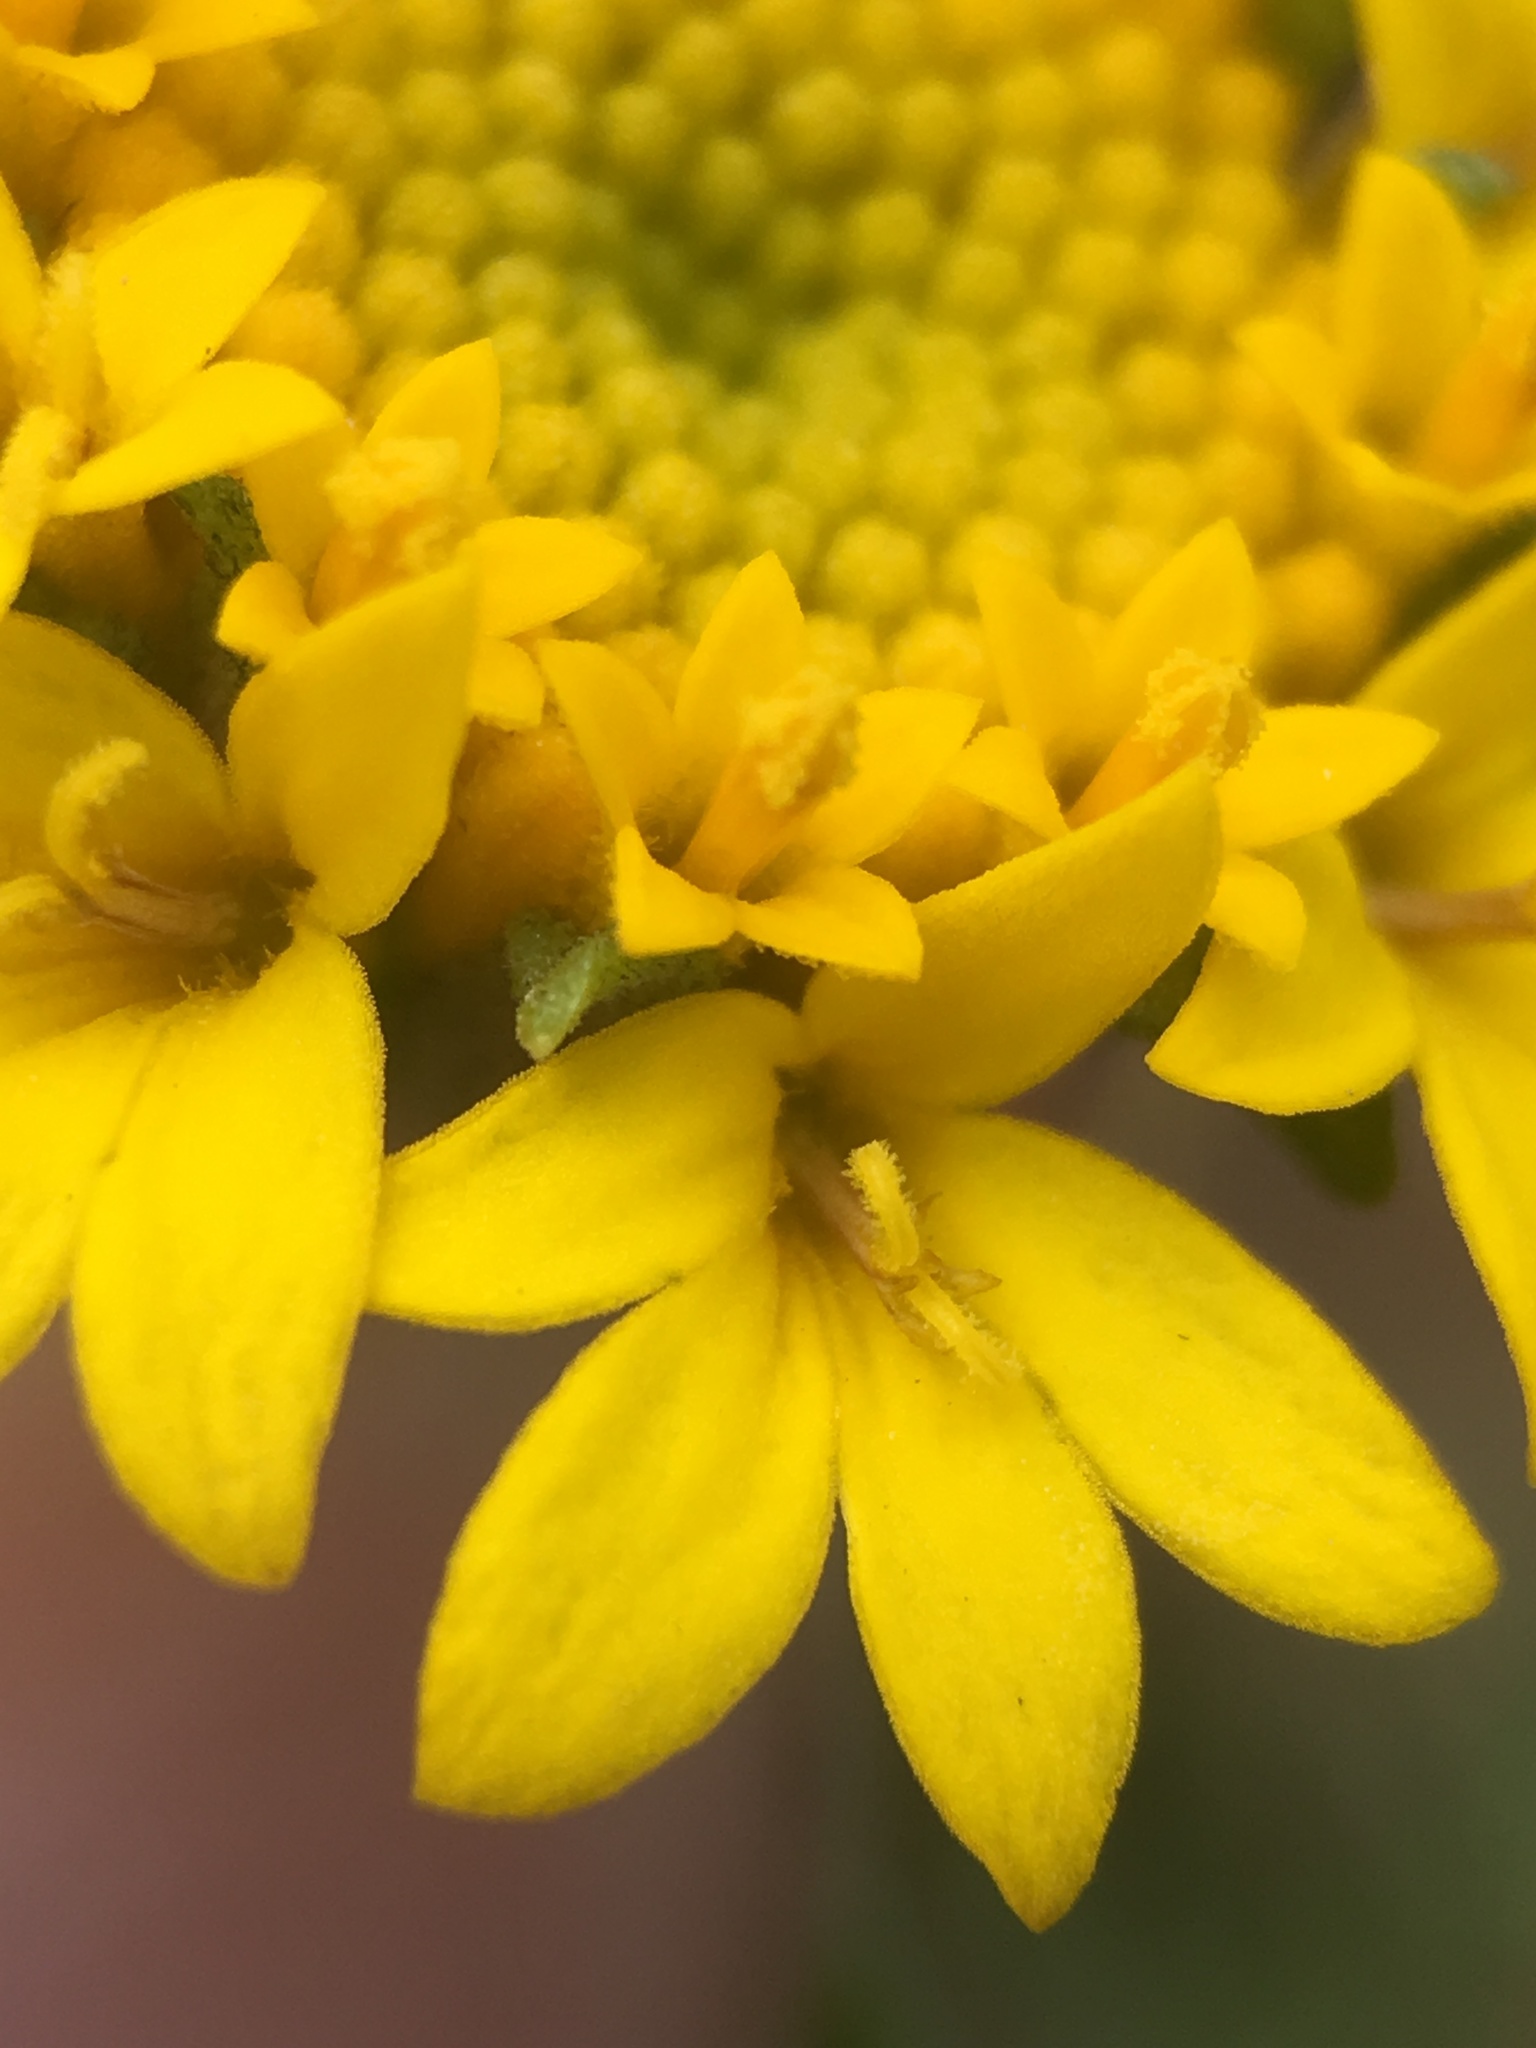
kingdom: Plantae
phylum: Tracheophyta
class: Magnoliopsida
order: Asterales
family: Asteraceae
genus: Chaenactis
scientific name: Chaenactis glabriuscula
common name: Yellow pincushion
